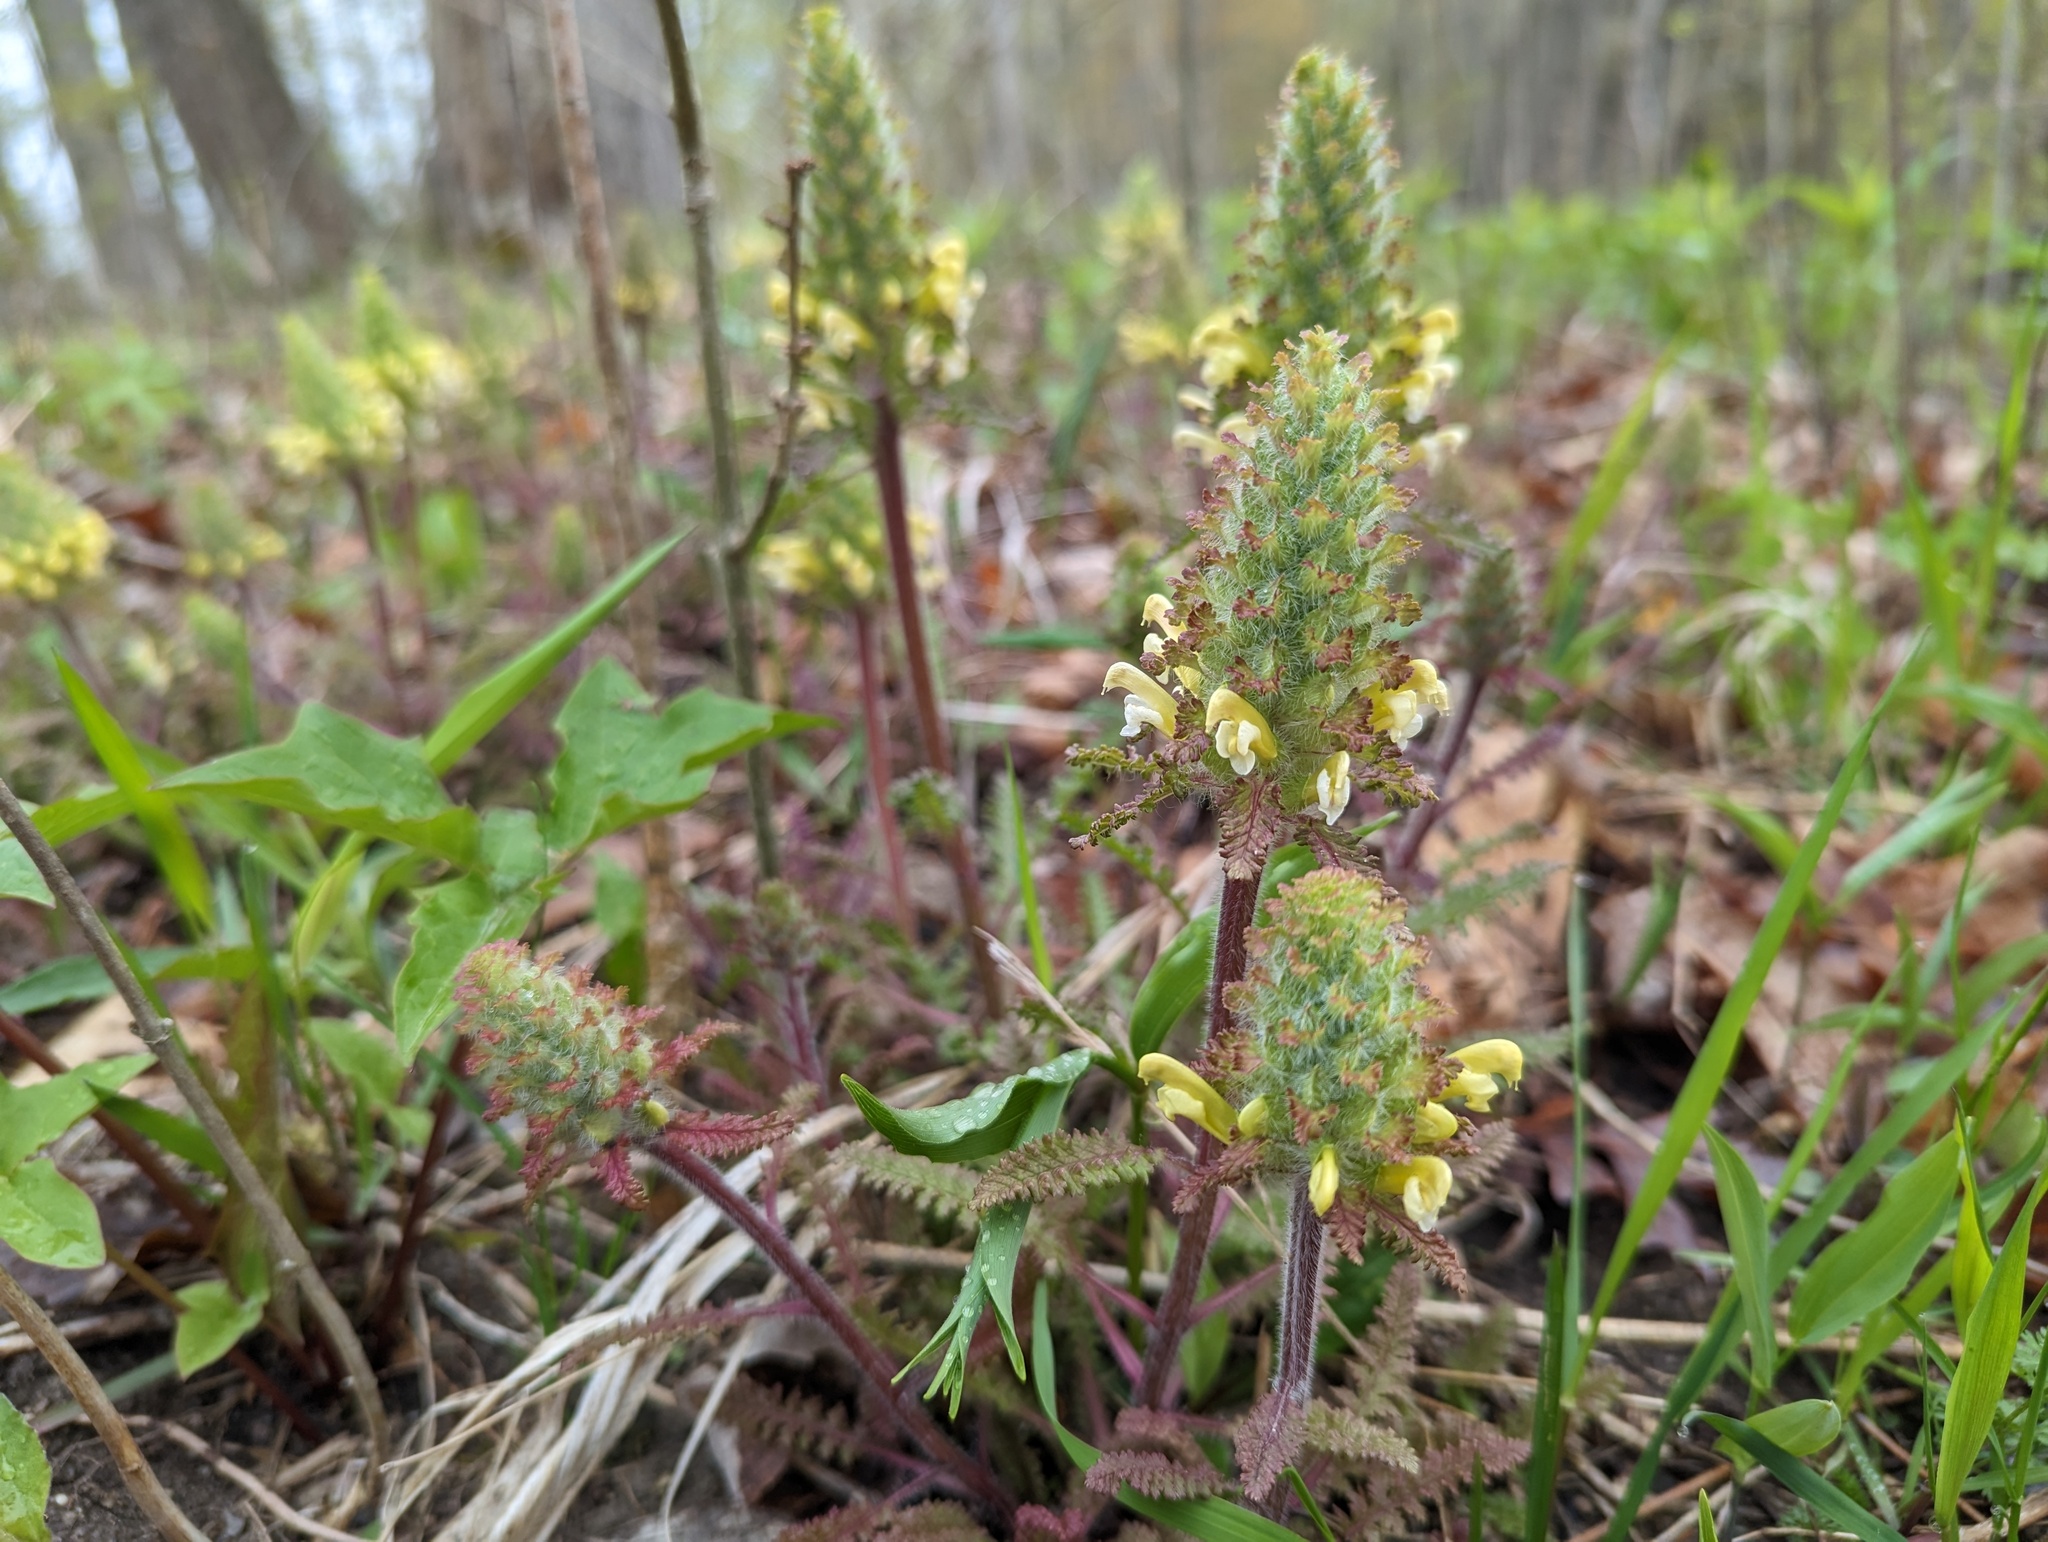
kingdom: Plantae
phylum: Tracheophyta
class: Magnoliopsida
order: Lamiales
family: Orobanchaceae
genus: Pedicularis
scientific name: Pedicularis canadensis
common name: Early lousewort
